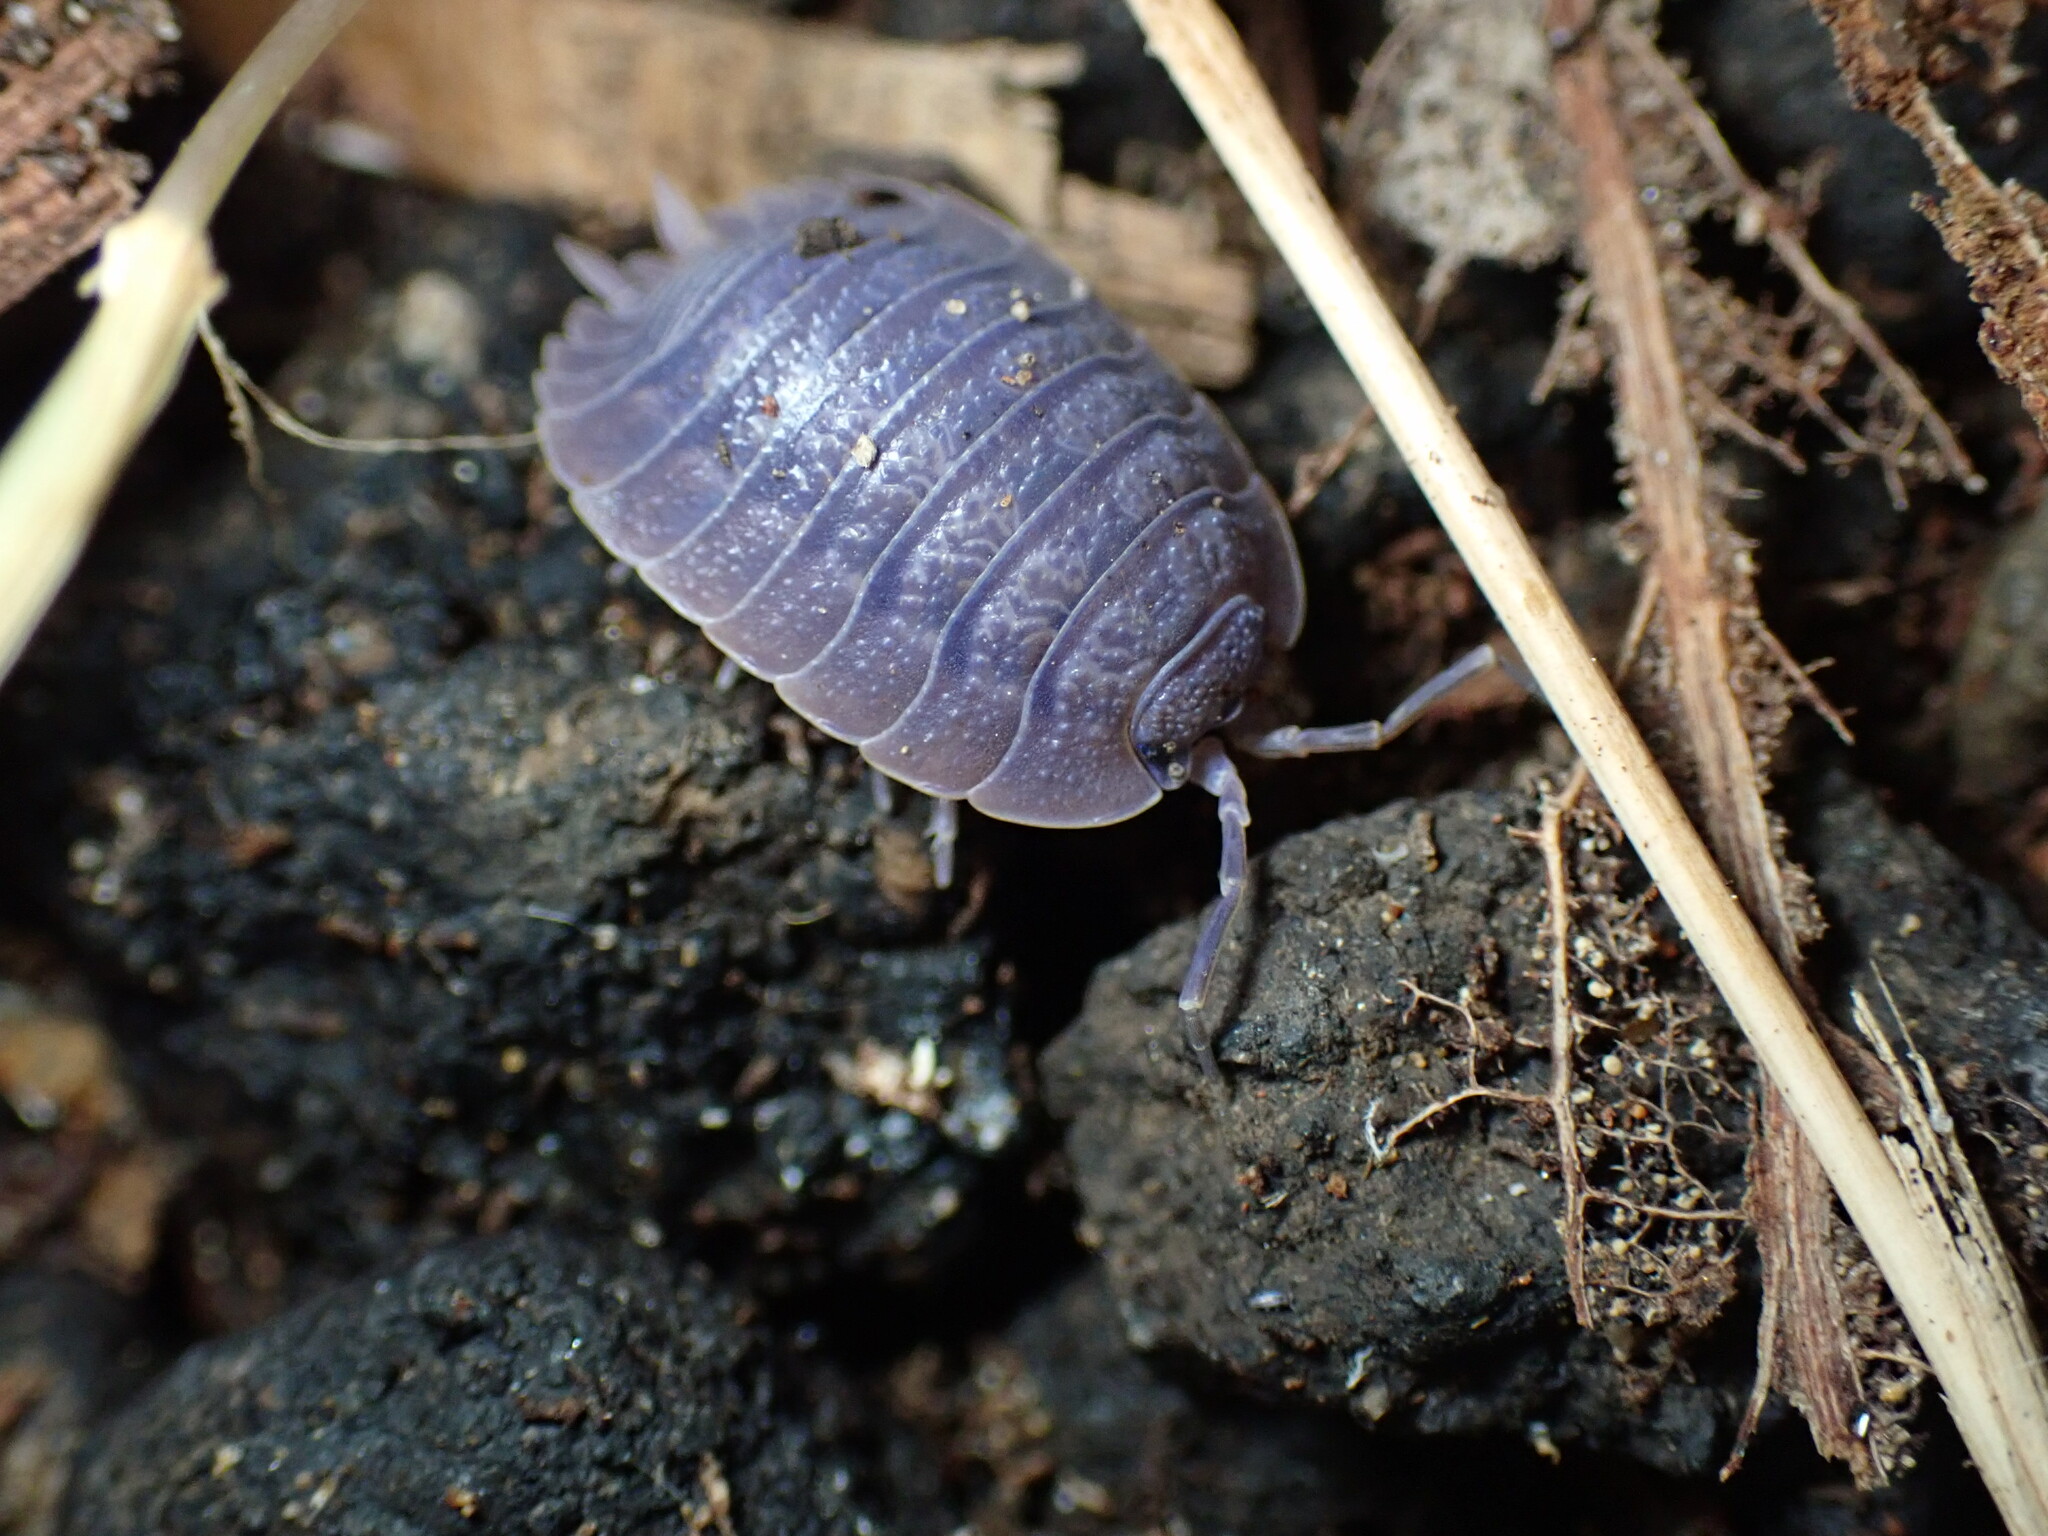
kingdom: Viruses
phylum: Nucleocytoviricota
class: Megaviricetes
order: Pimascovirales
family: Iridoviridae
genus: Iridovirus
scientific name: Iridovirus Invertebrate iridescent virus 31
